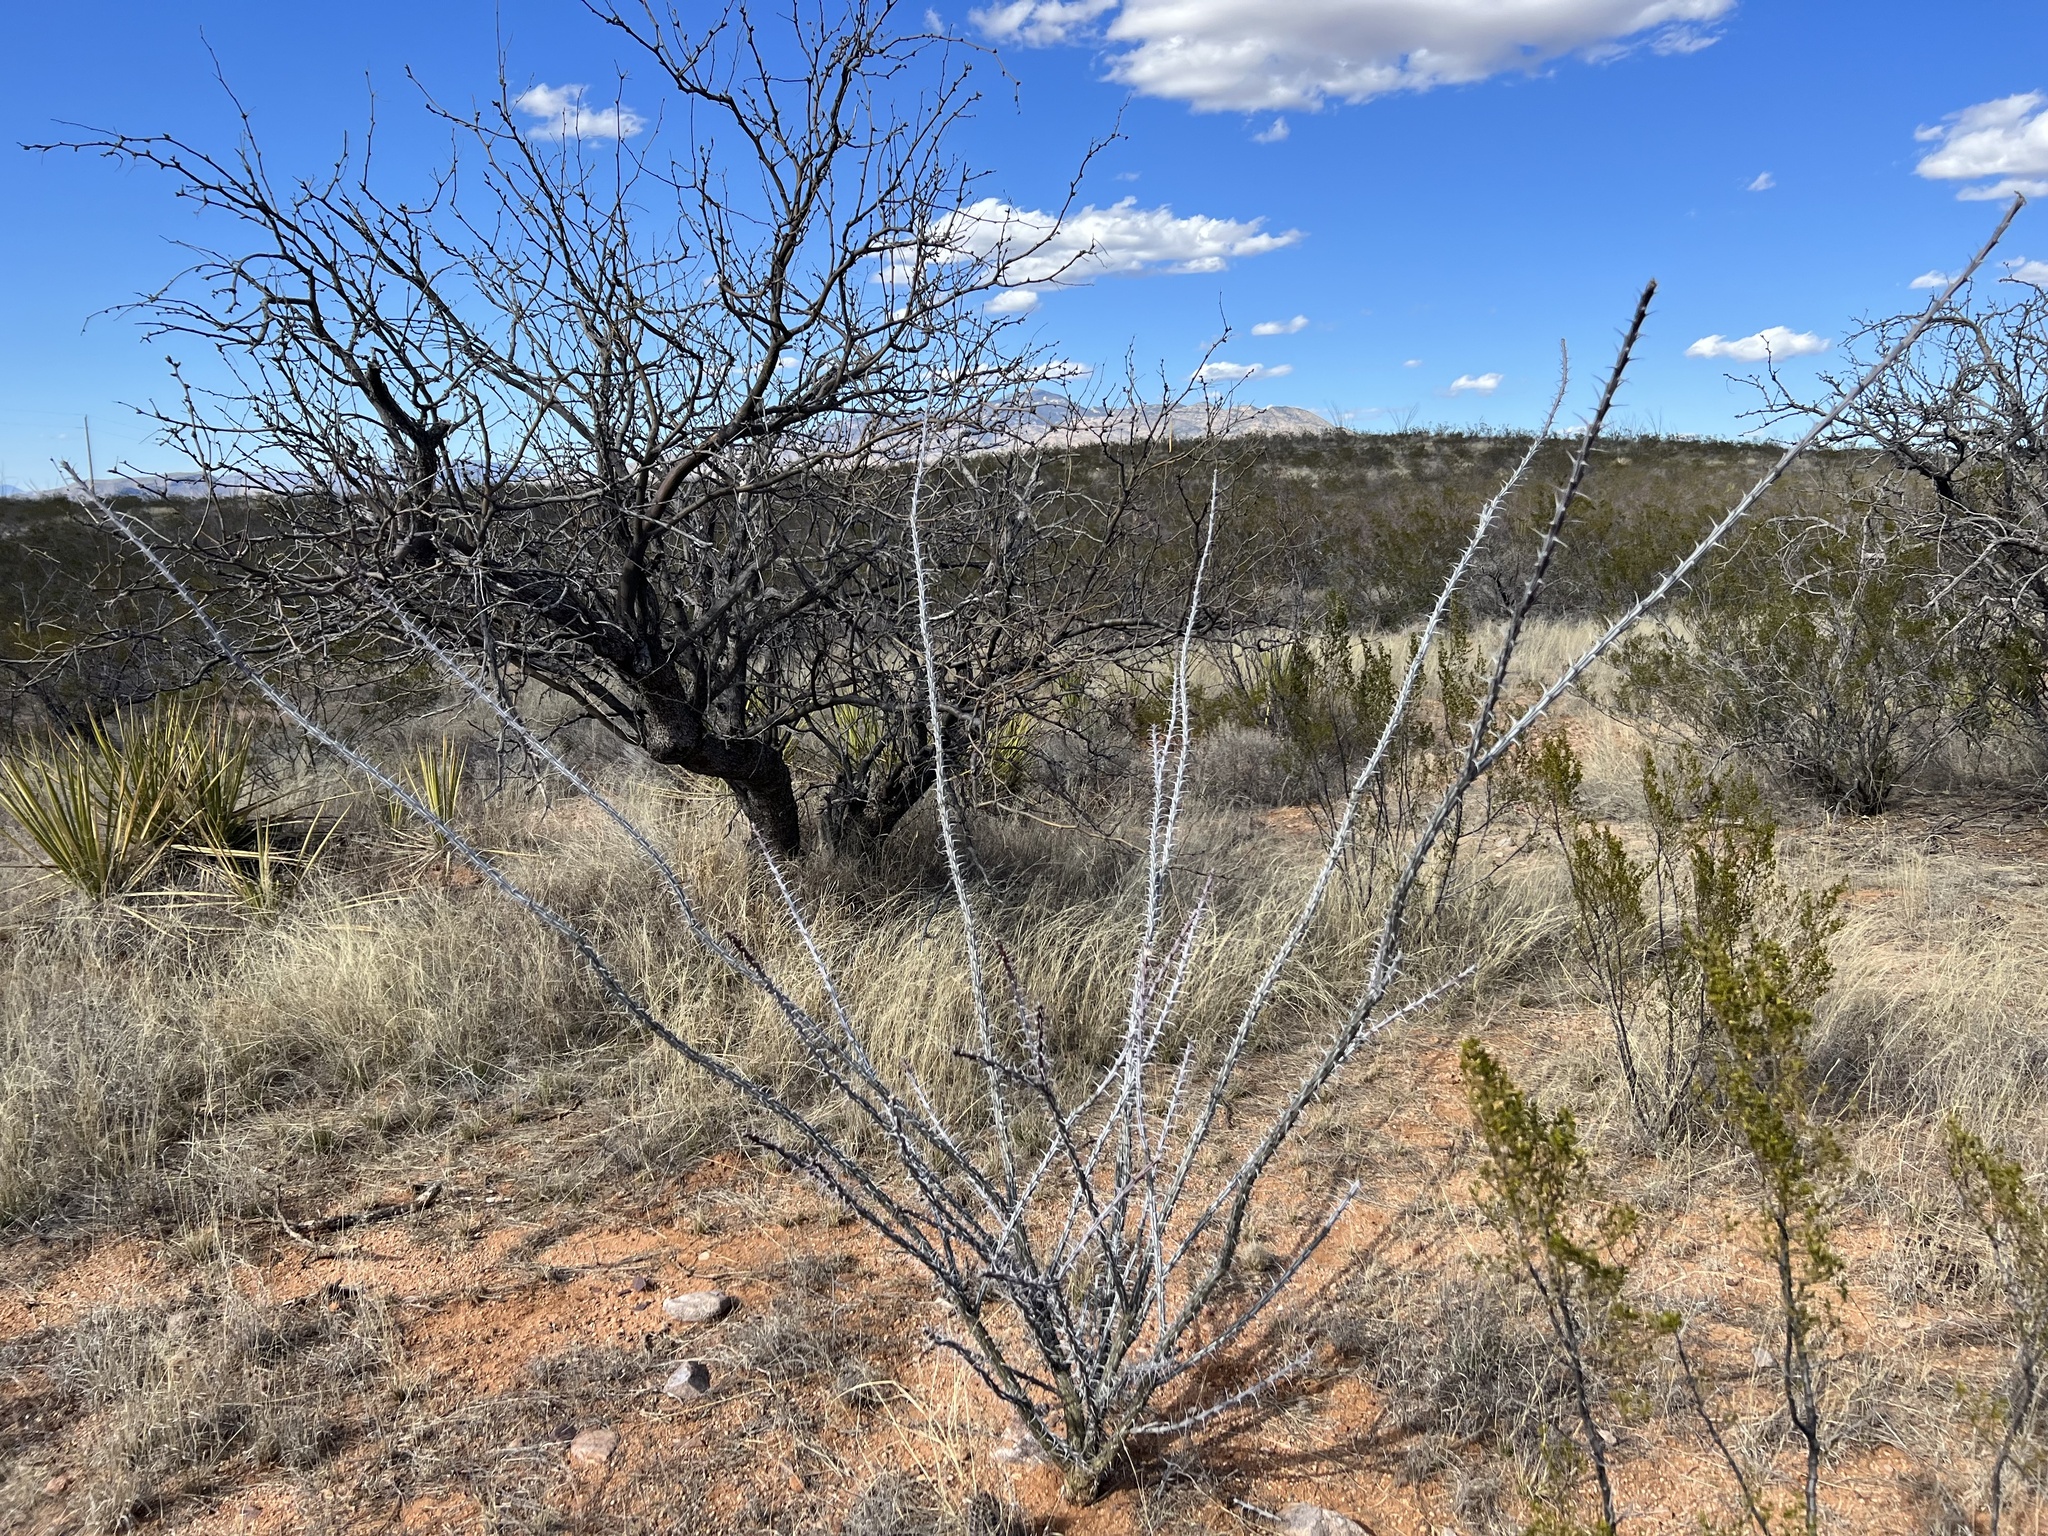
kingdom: Plantae
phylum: Tracheophyta
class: Magnoliopsida
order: Ericales
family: Fouquieriaceae
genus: Fouquieria
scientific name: Fouquieria splendens
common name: Vine-cactus
